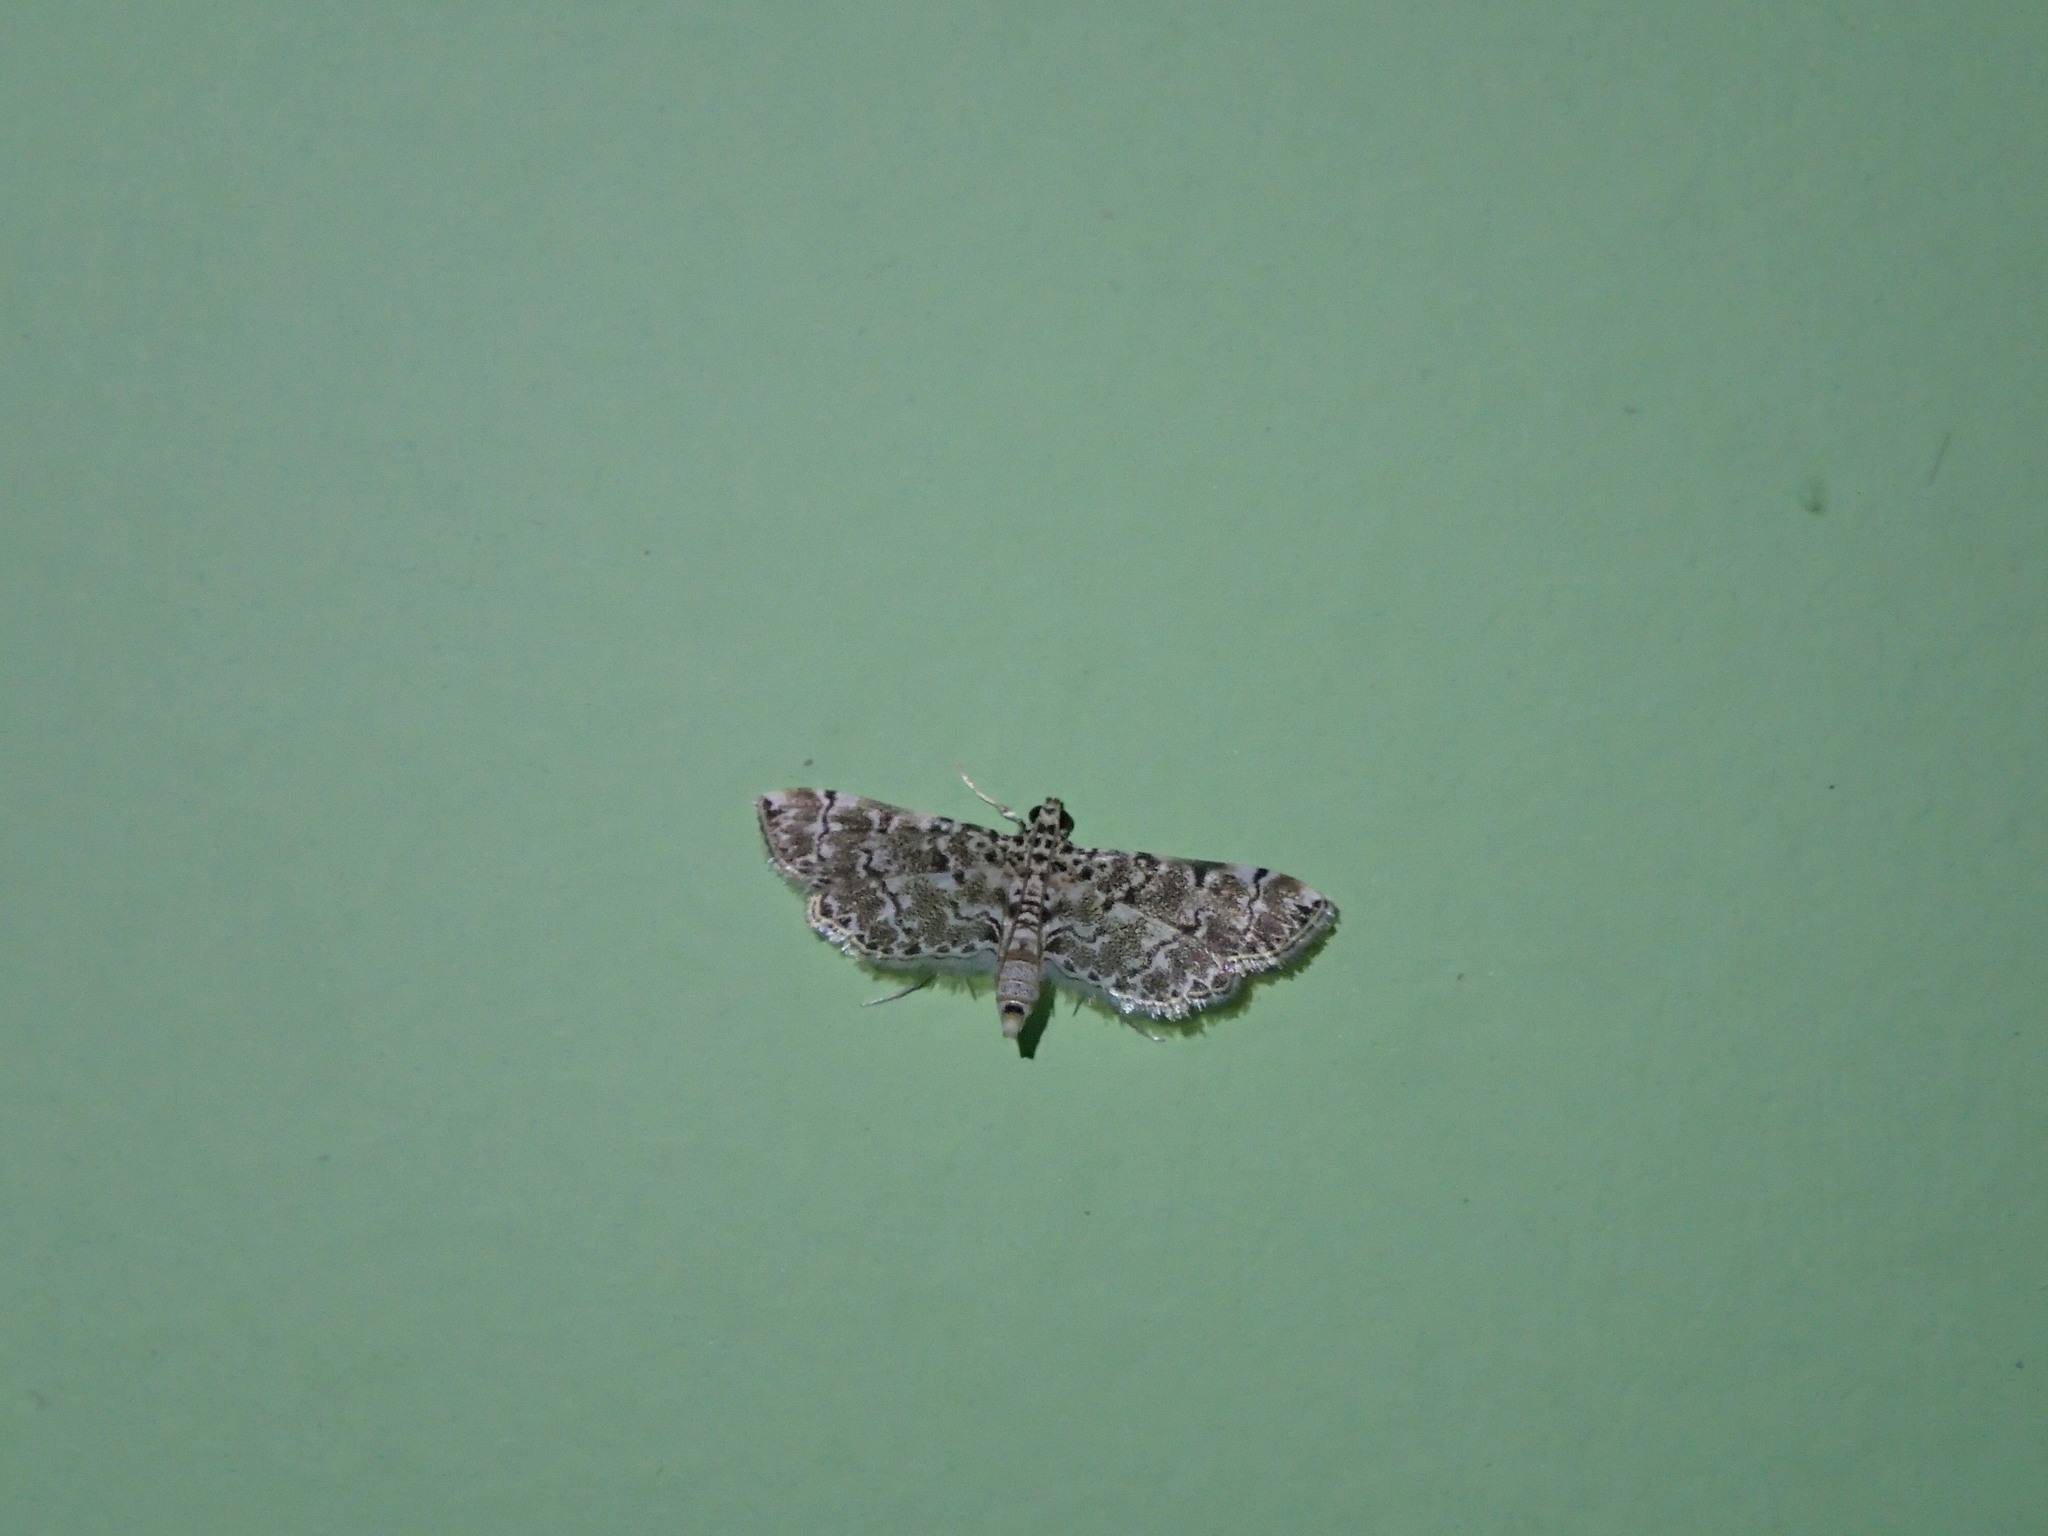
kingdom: Animalia
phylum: Arthropoda
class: Insecta
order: Lepidoptera
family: Crambidae
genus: Metoeca
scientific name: Metoeca foedalis
